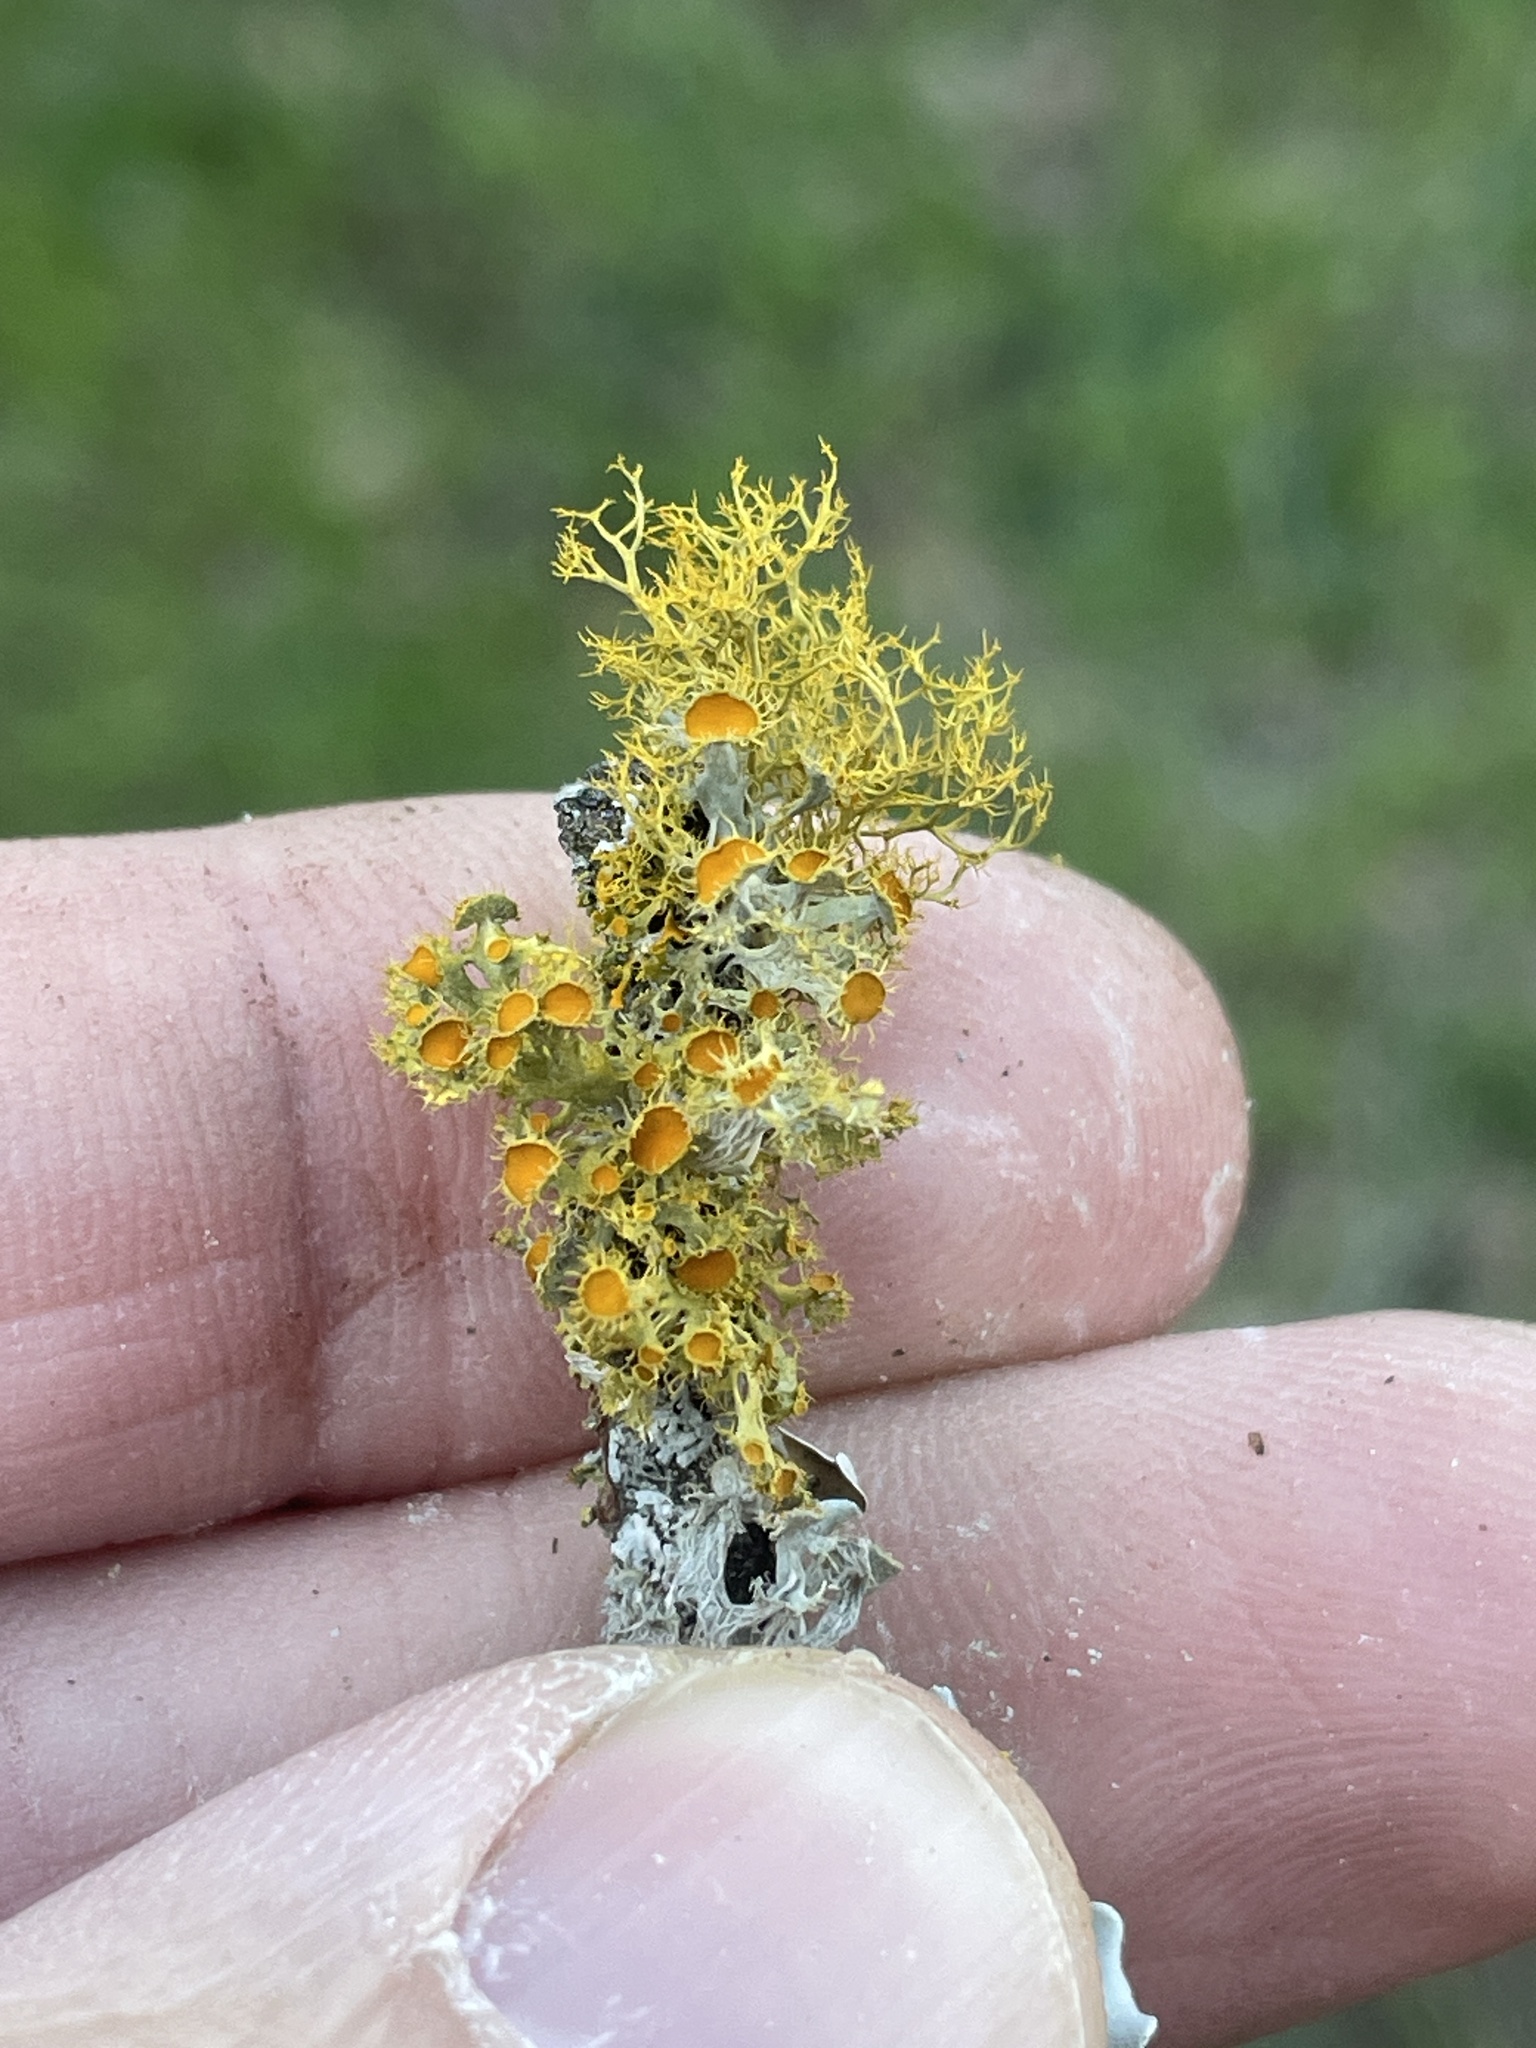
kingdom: Fungi
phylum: Ascomycota
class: Lecanoromycetes
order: Teloschistales
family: Teloschistaceae
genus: Niorma
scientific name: Niorma chrysophthalma
